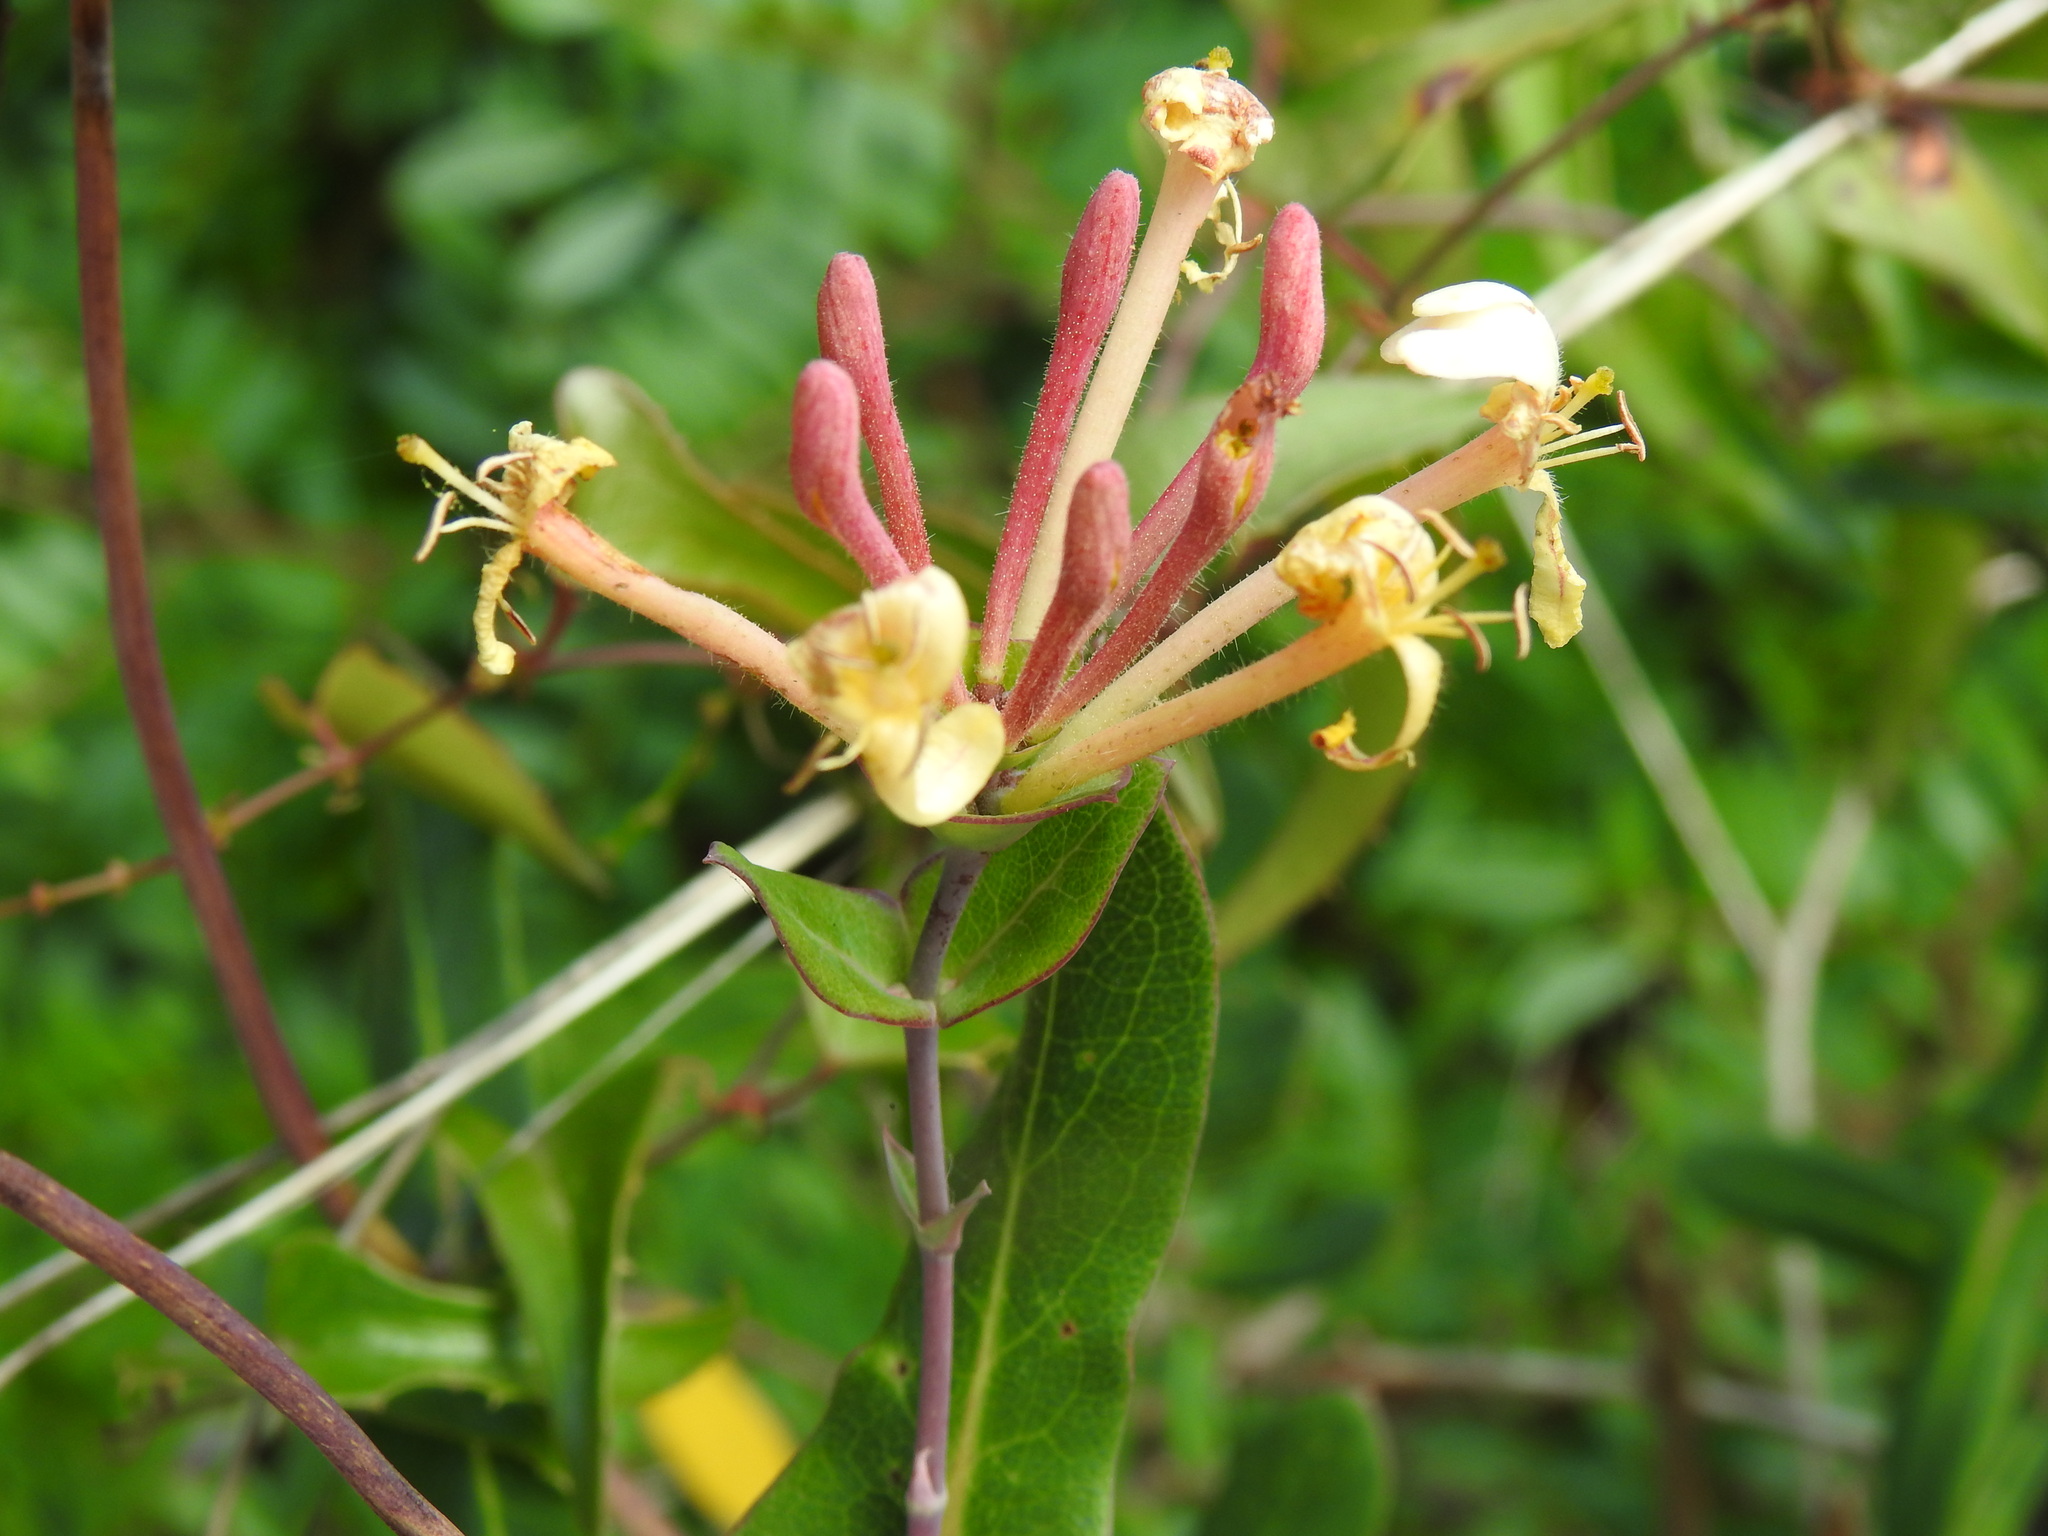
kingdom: Plantae
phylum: Tracheophyta
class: Magnoliopsida
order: Dipsacales
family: Caprifoliaceae
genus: Lonicera
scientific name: Lonicera implexa
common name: Minorca honeysuckle
